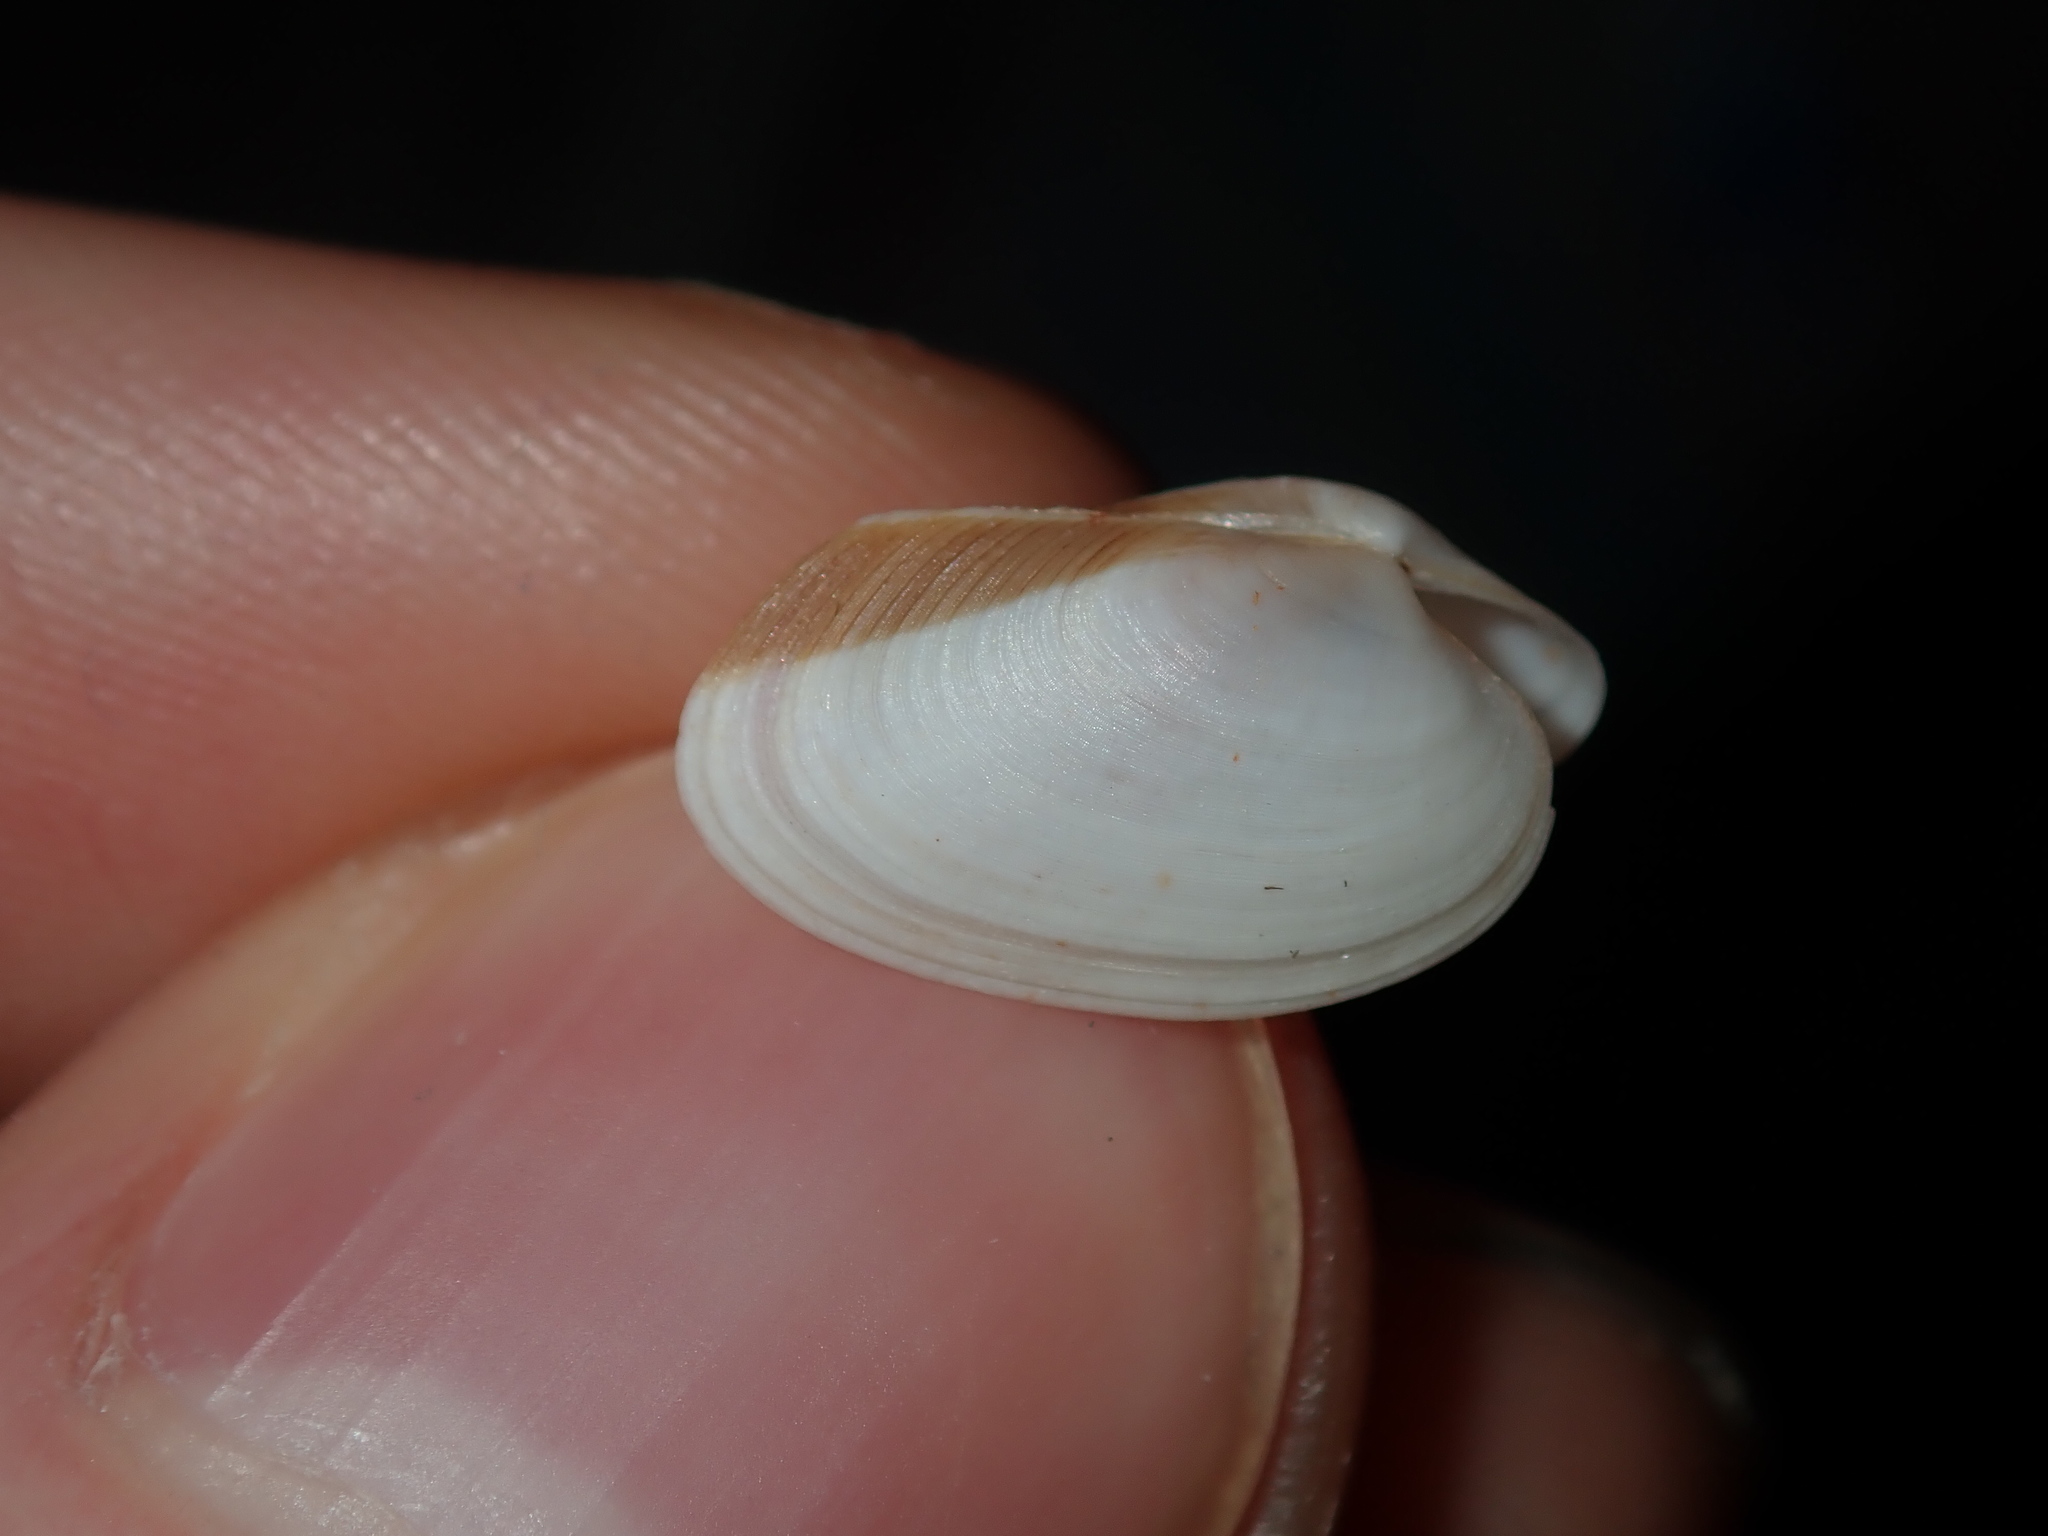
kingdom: Animalia
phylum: Mollusca
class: Bivalvia
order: Venerida
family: Veneridae
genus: Venerupis
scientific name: Venerupis anomala
